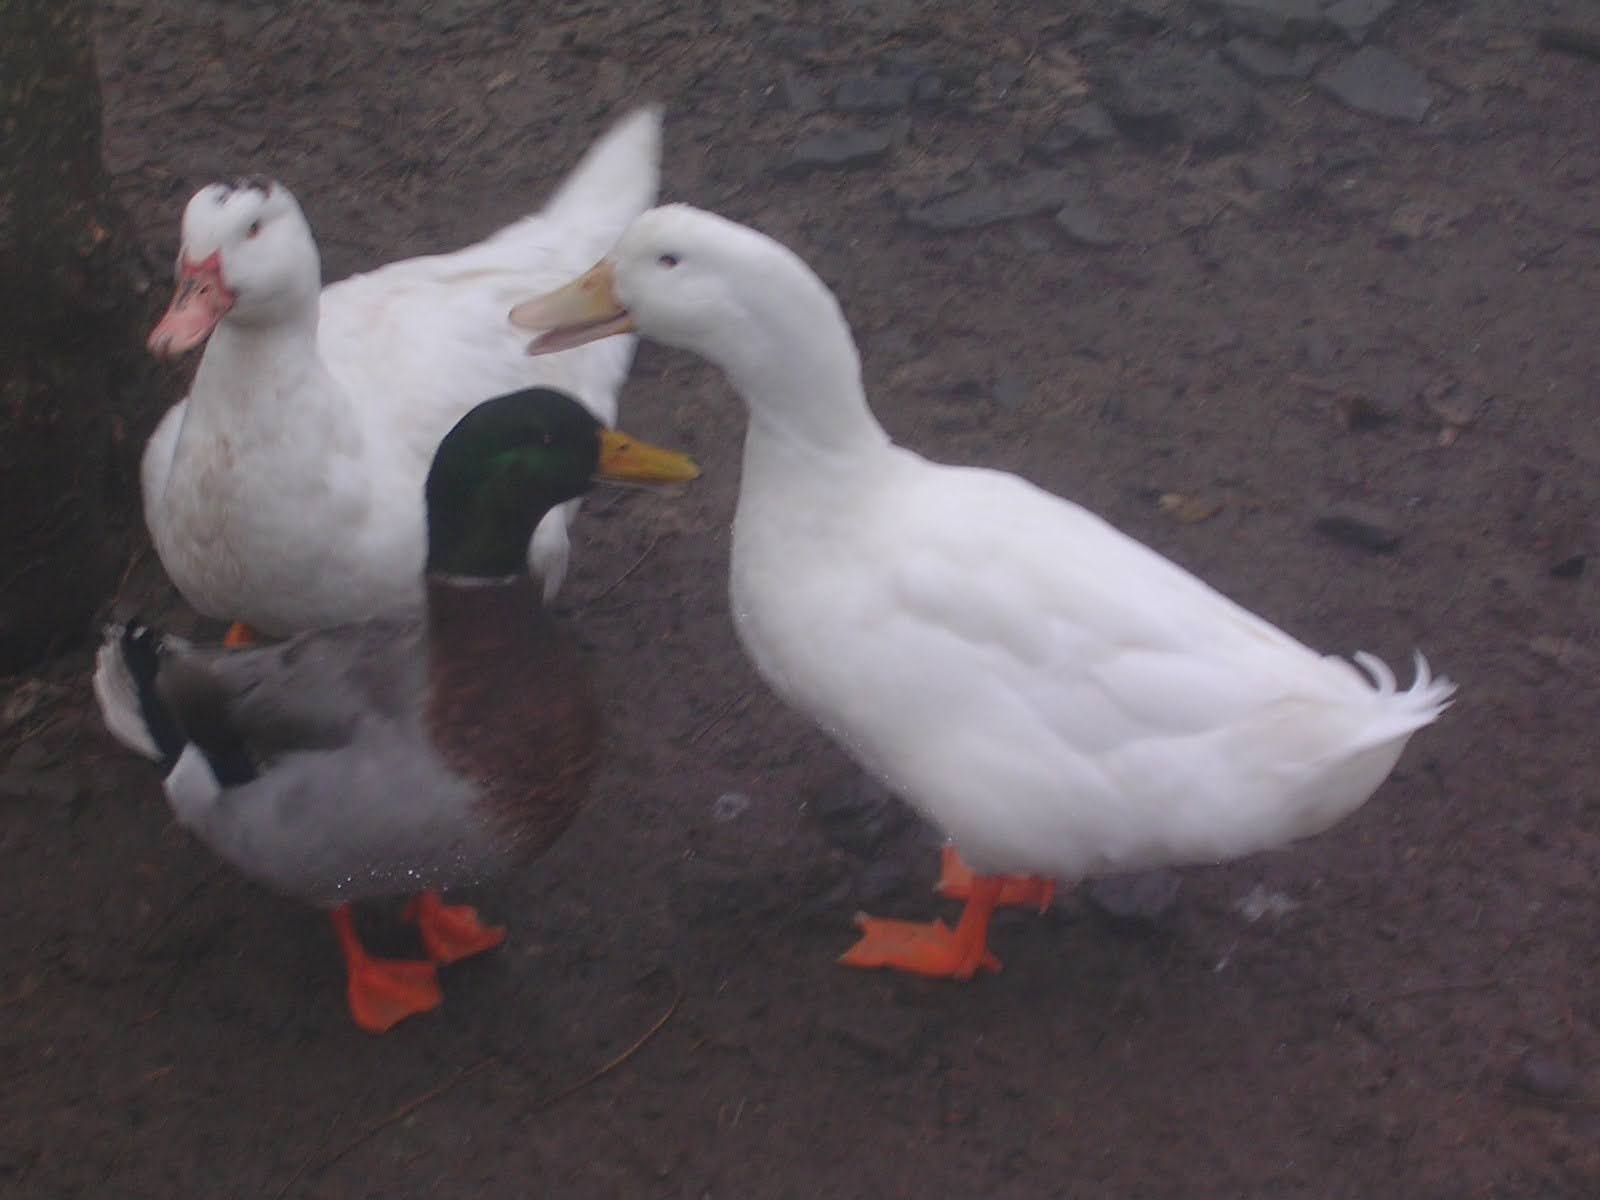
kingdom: Animalia
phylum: Chordata
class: Aves
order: Anseriformes
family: Anatidae
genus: Anas
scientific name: Anas platyrhynchos
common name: Mallard
